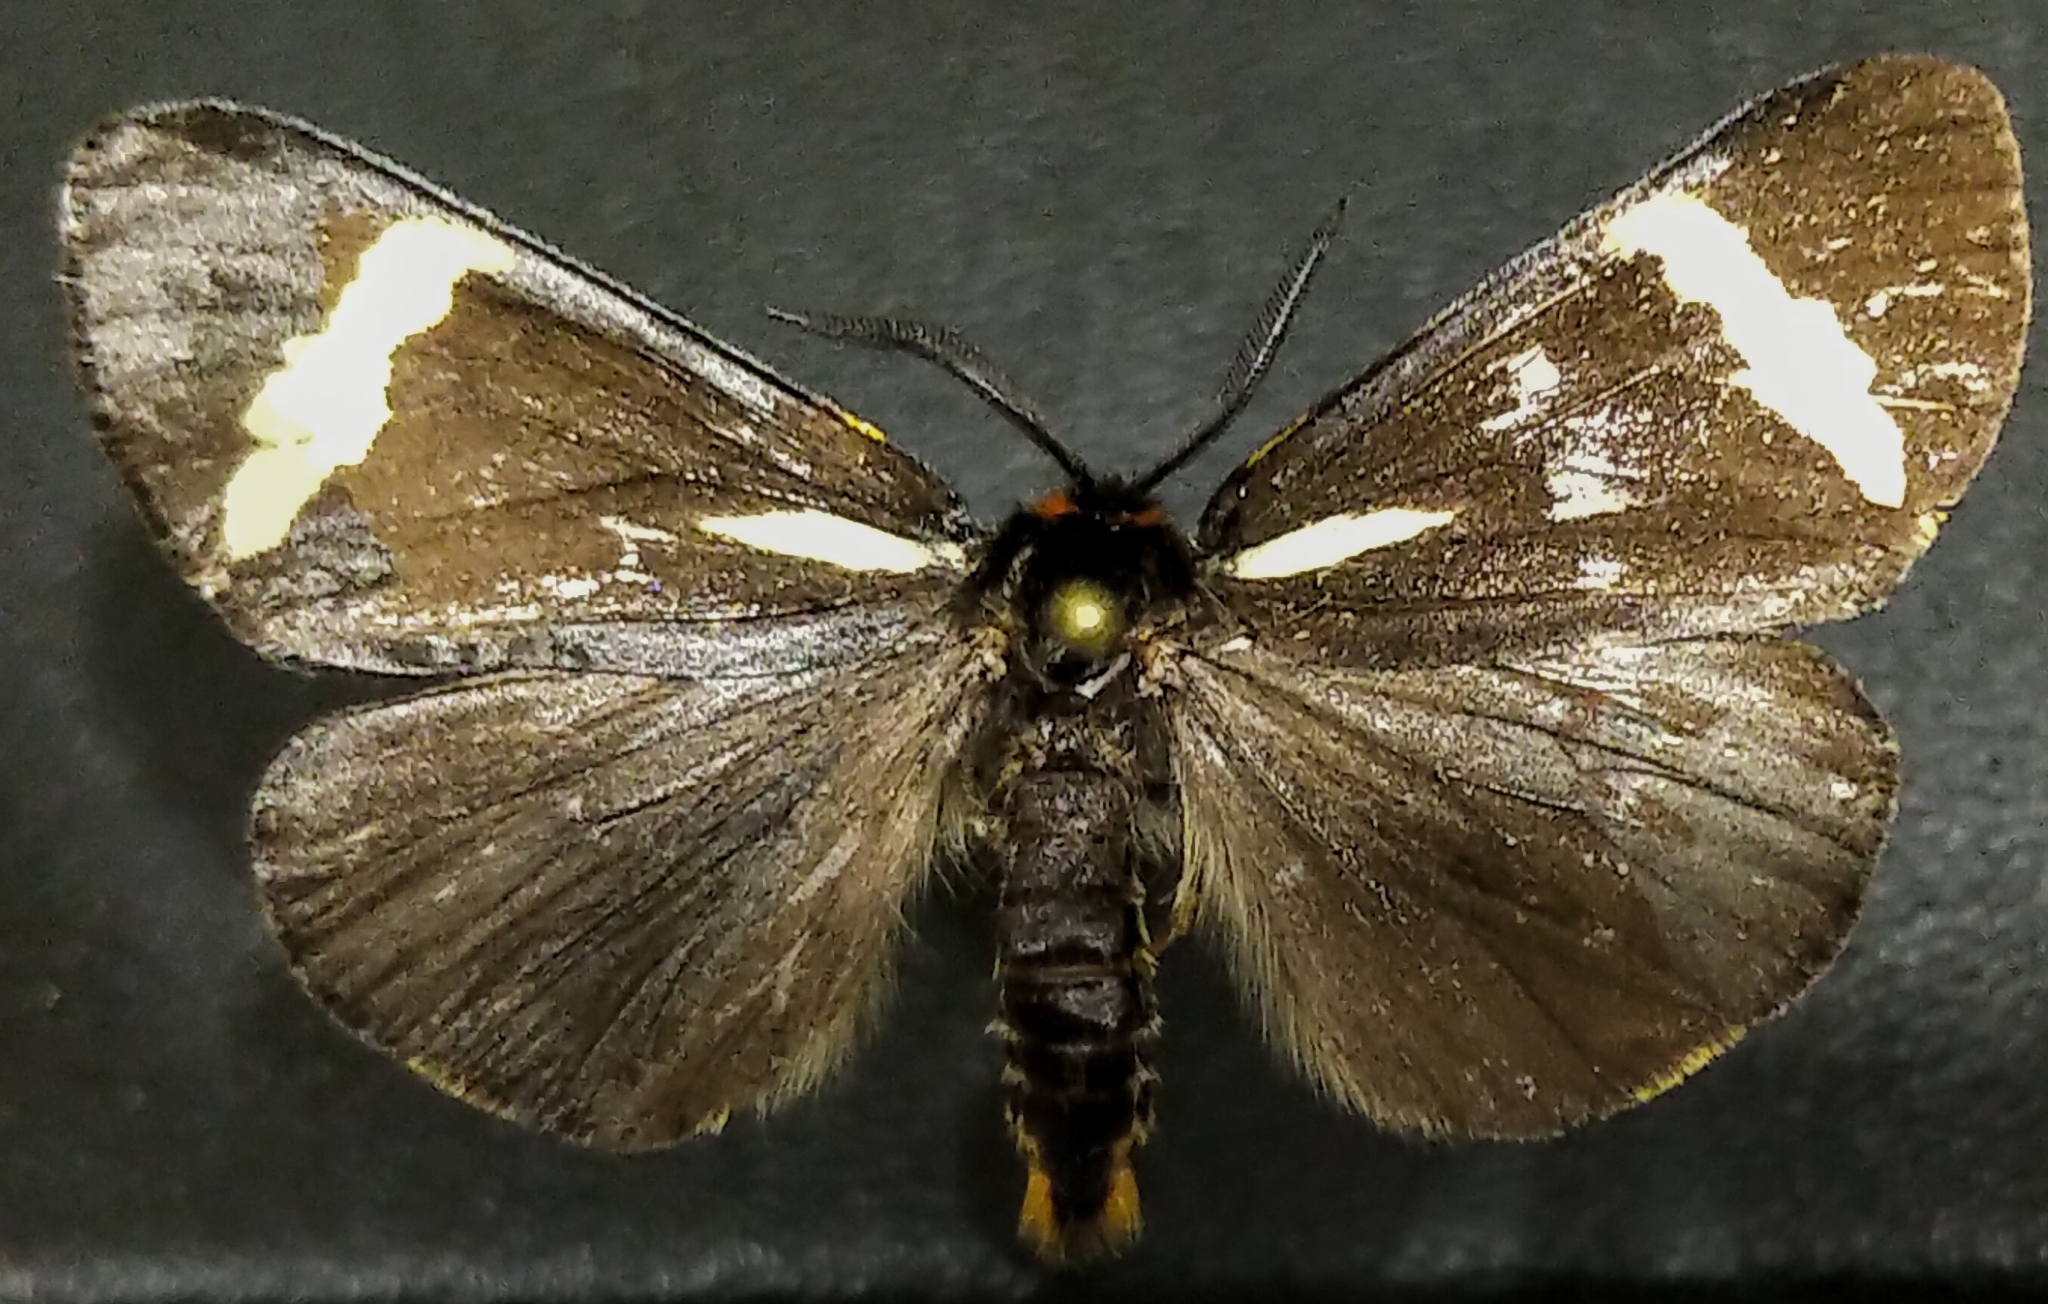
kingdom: Animalia
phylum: Arthropoda
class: Insecta
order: Lepidoptera
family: Erebidae
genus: Parasemia
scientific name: Parasemia plantaginis
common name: Wood tiger
